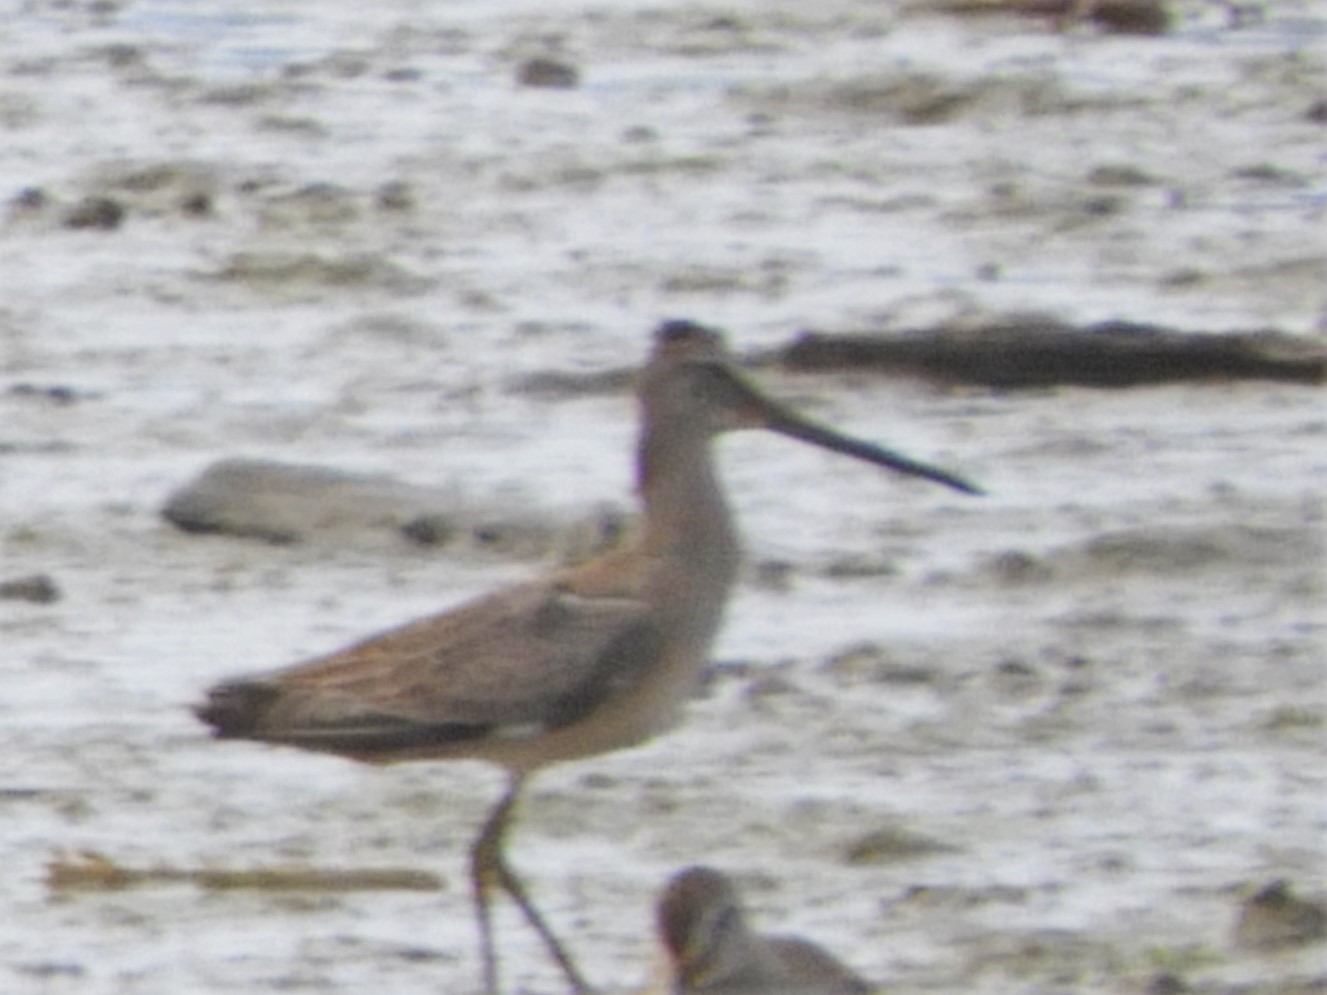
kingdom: Animalia
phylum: Chordata
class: Aves
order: Charadriiformes
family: Scolopacidae
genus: Limosa
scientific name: Limosa haemastica
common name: Hudsonian godwit
